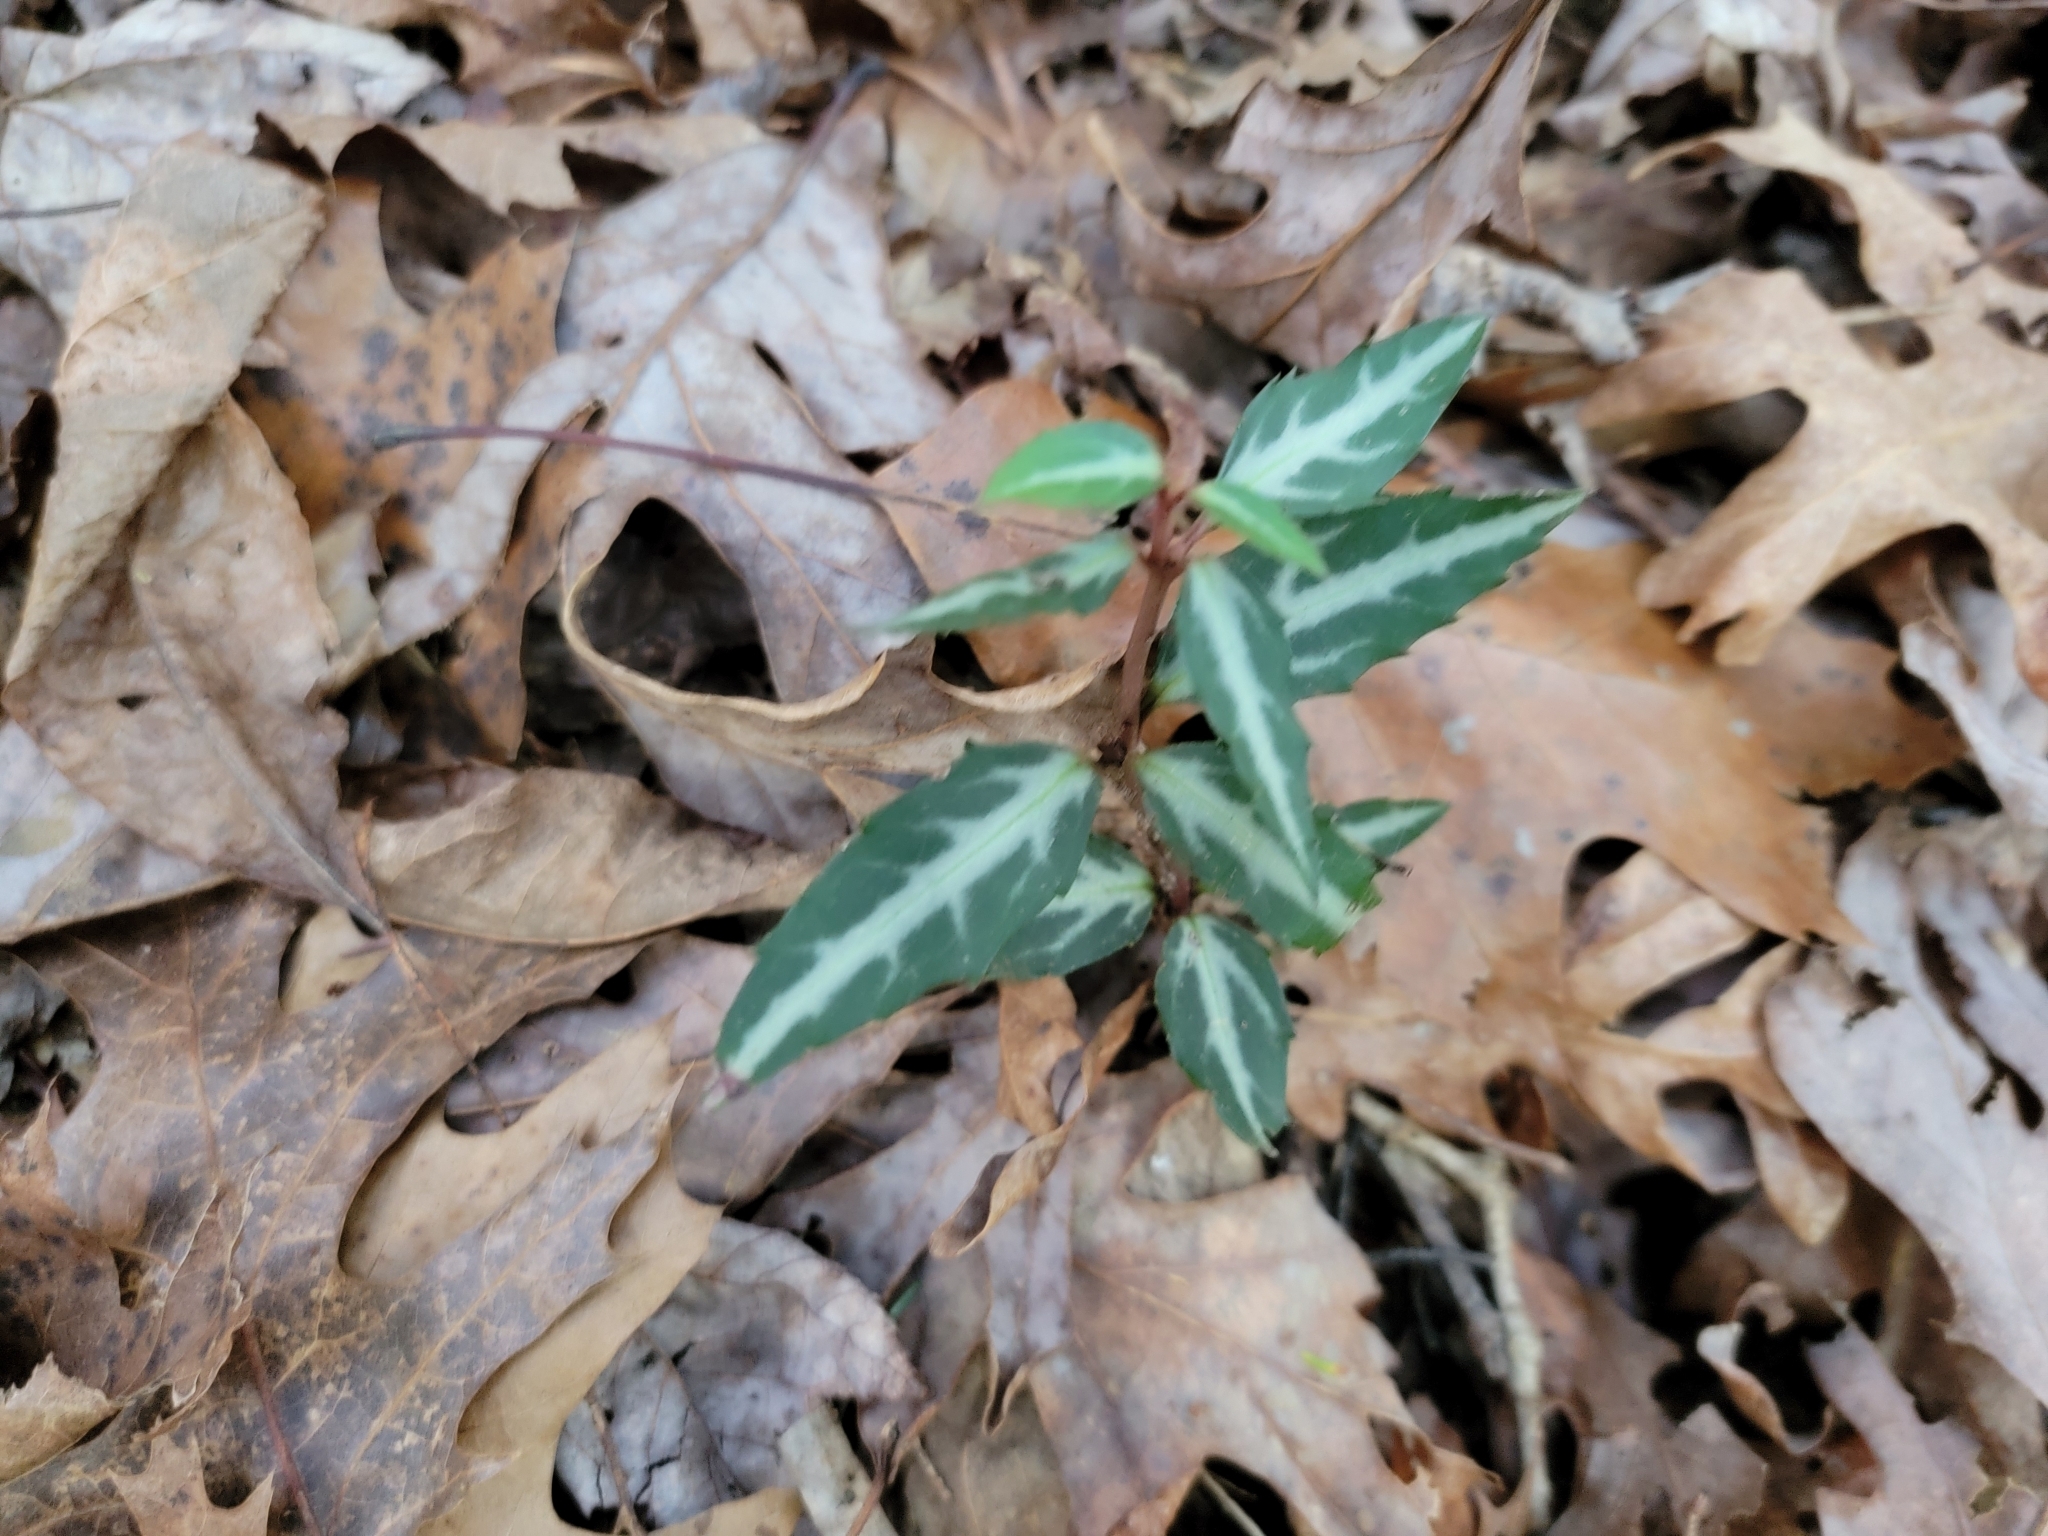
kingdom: Plantae
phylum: Tracheophyta
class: Magnoliopsida
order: Ericales
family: Ericaceae
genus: Chimaphila
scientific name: Chimaphila maculata
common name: Spotted pipsissewa
